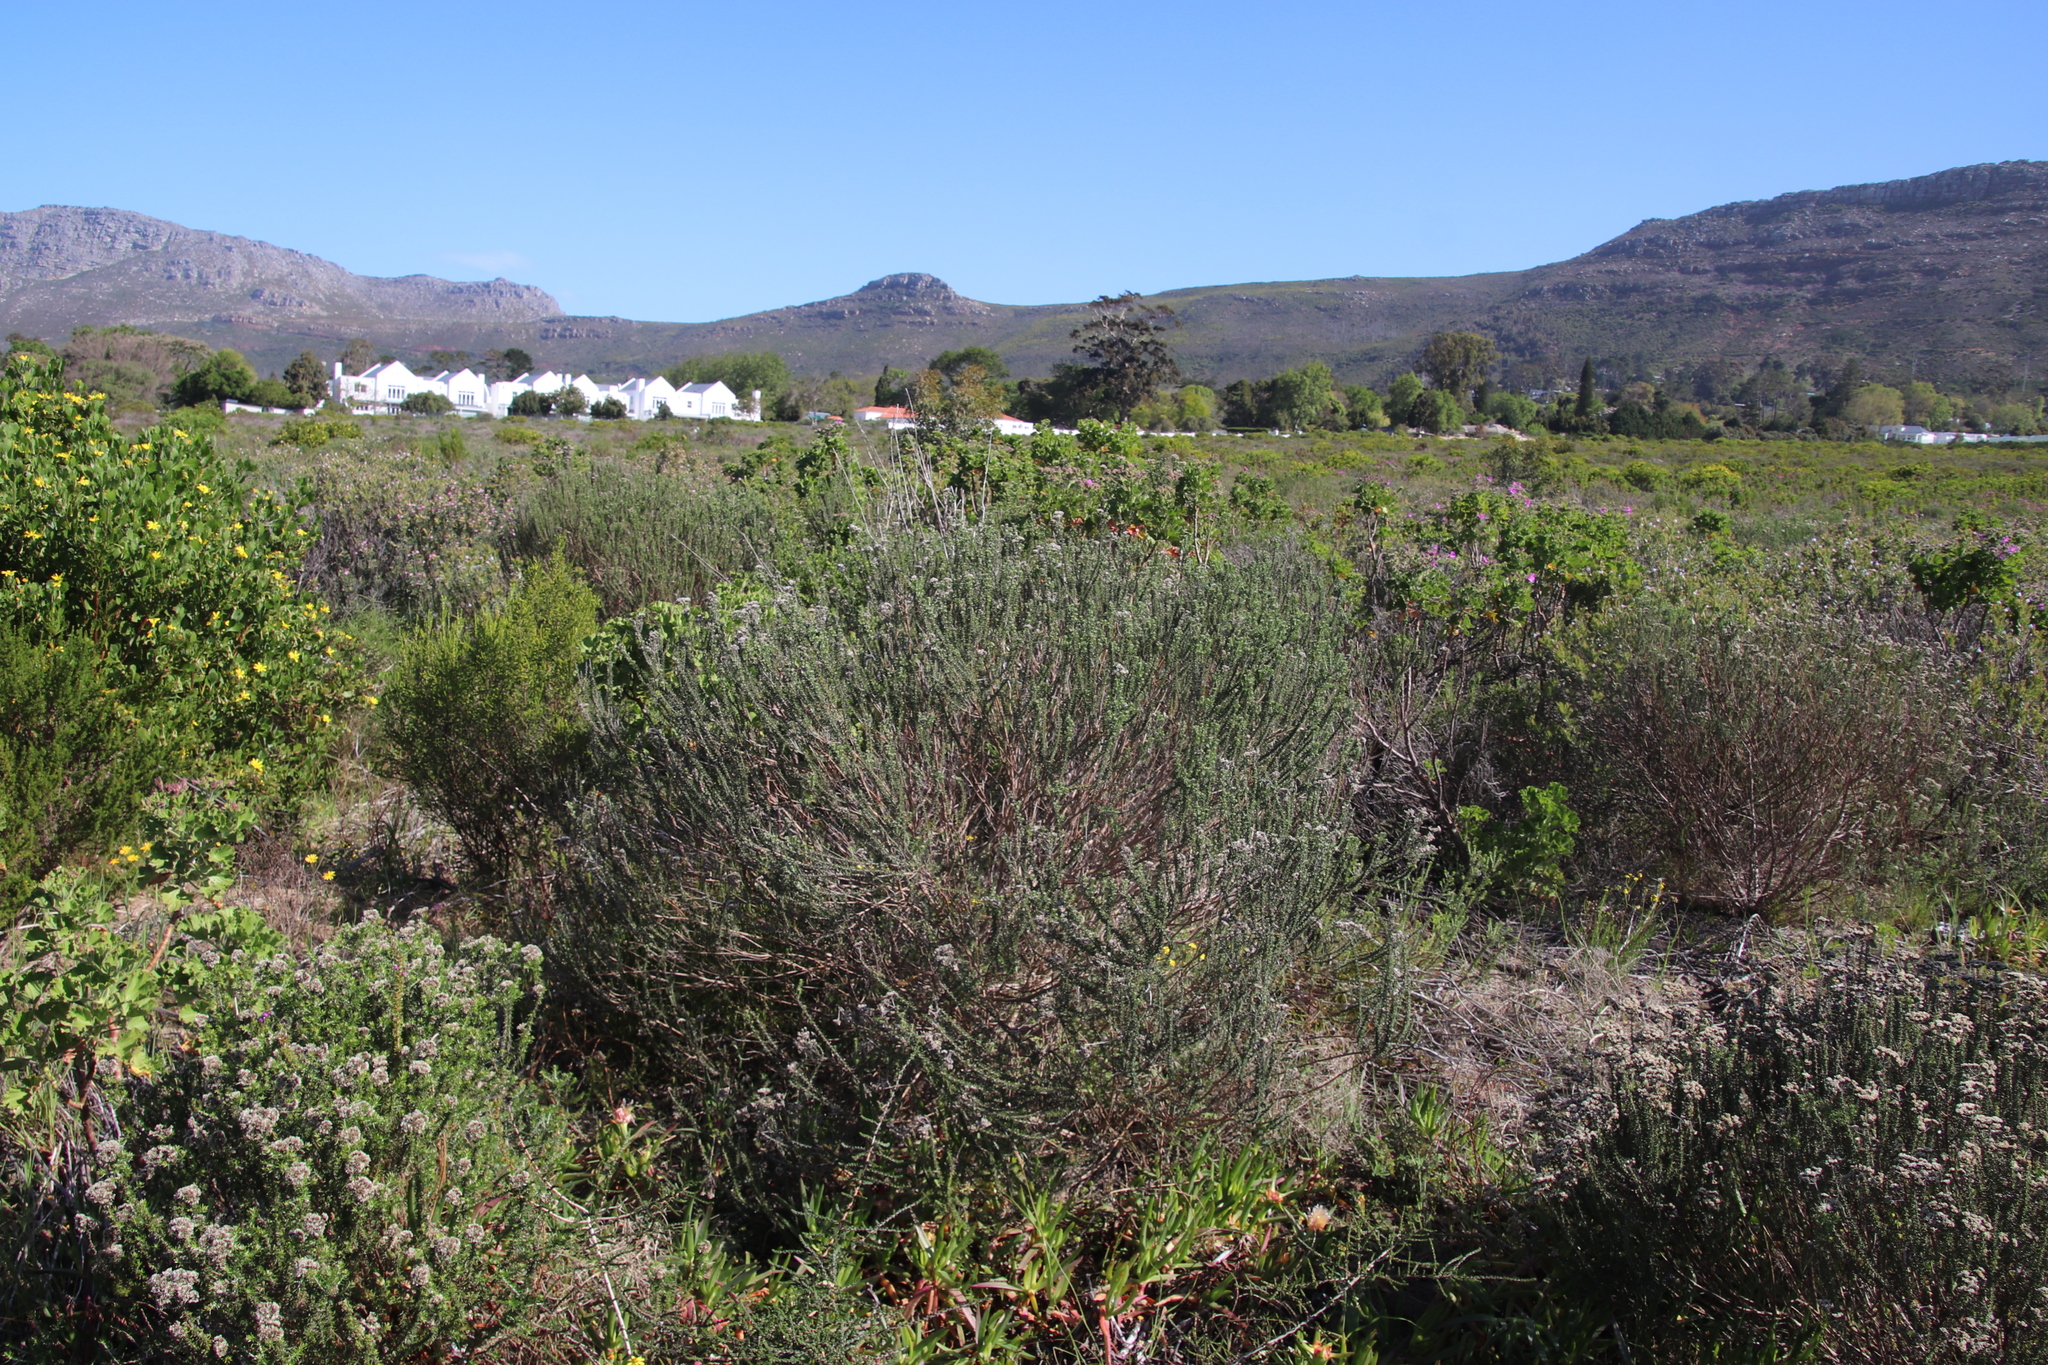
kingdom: Plantae
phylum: Tracheophyta
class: Magnoliopsida
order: Asterales
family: Asteraceae
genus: Metalasia
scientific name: Metalasia densa
